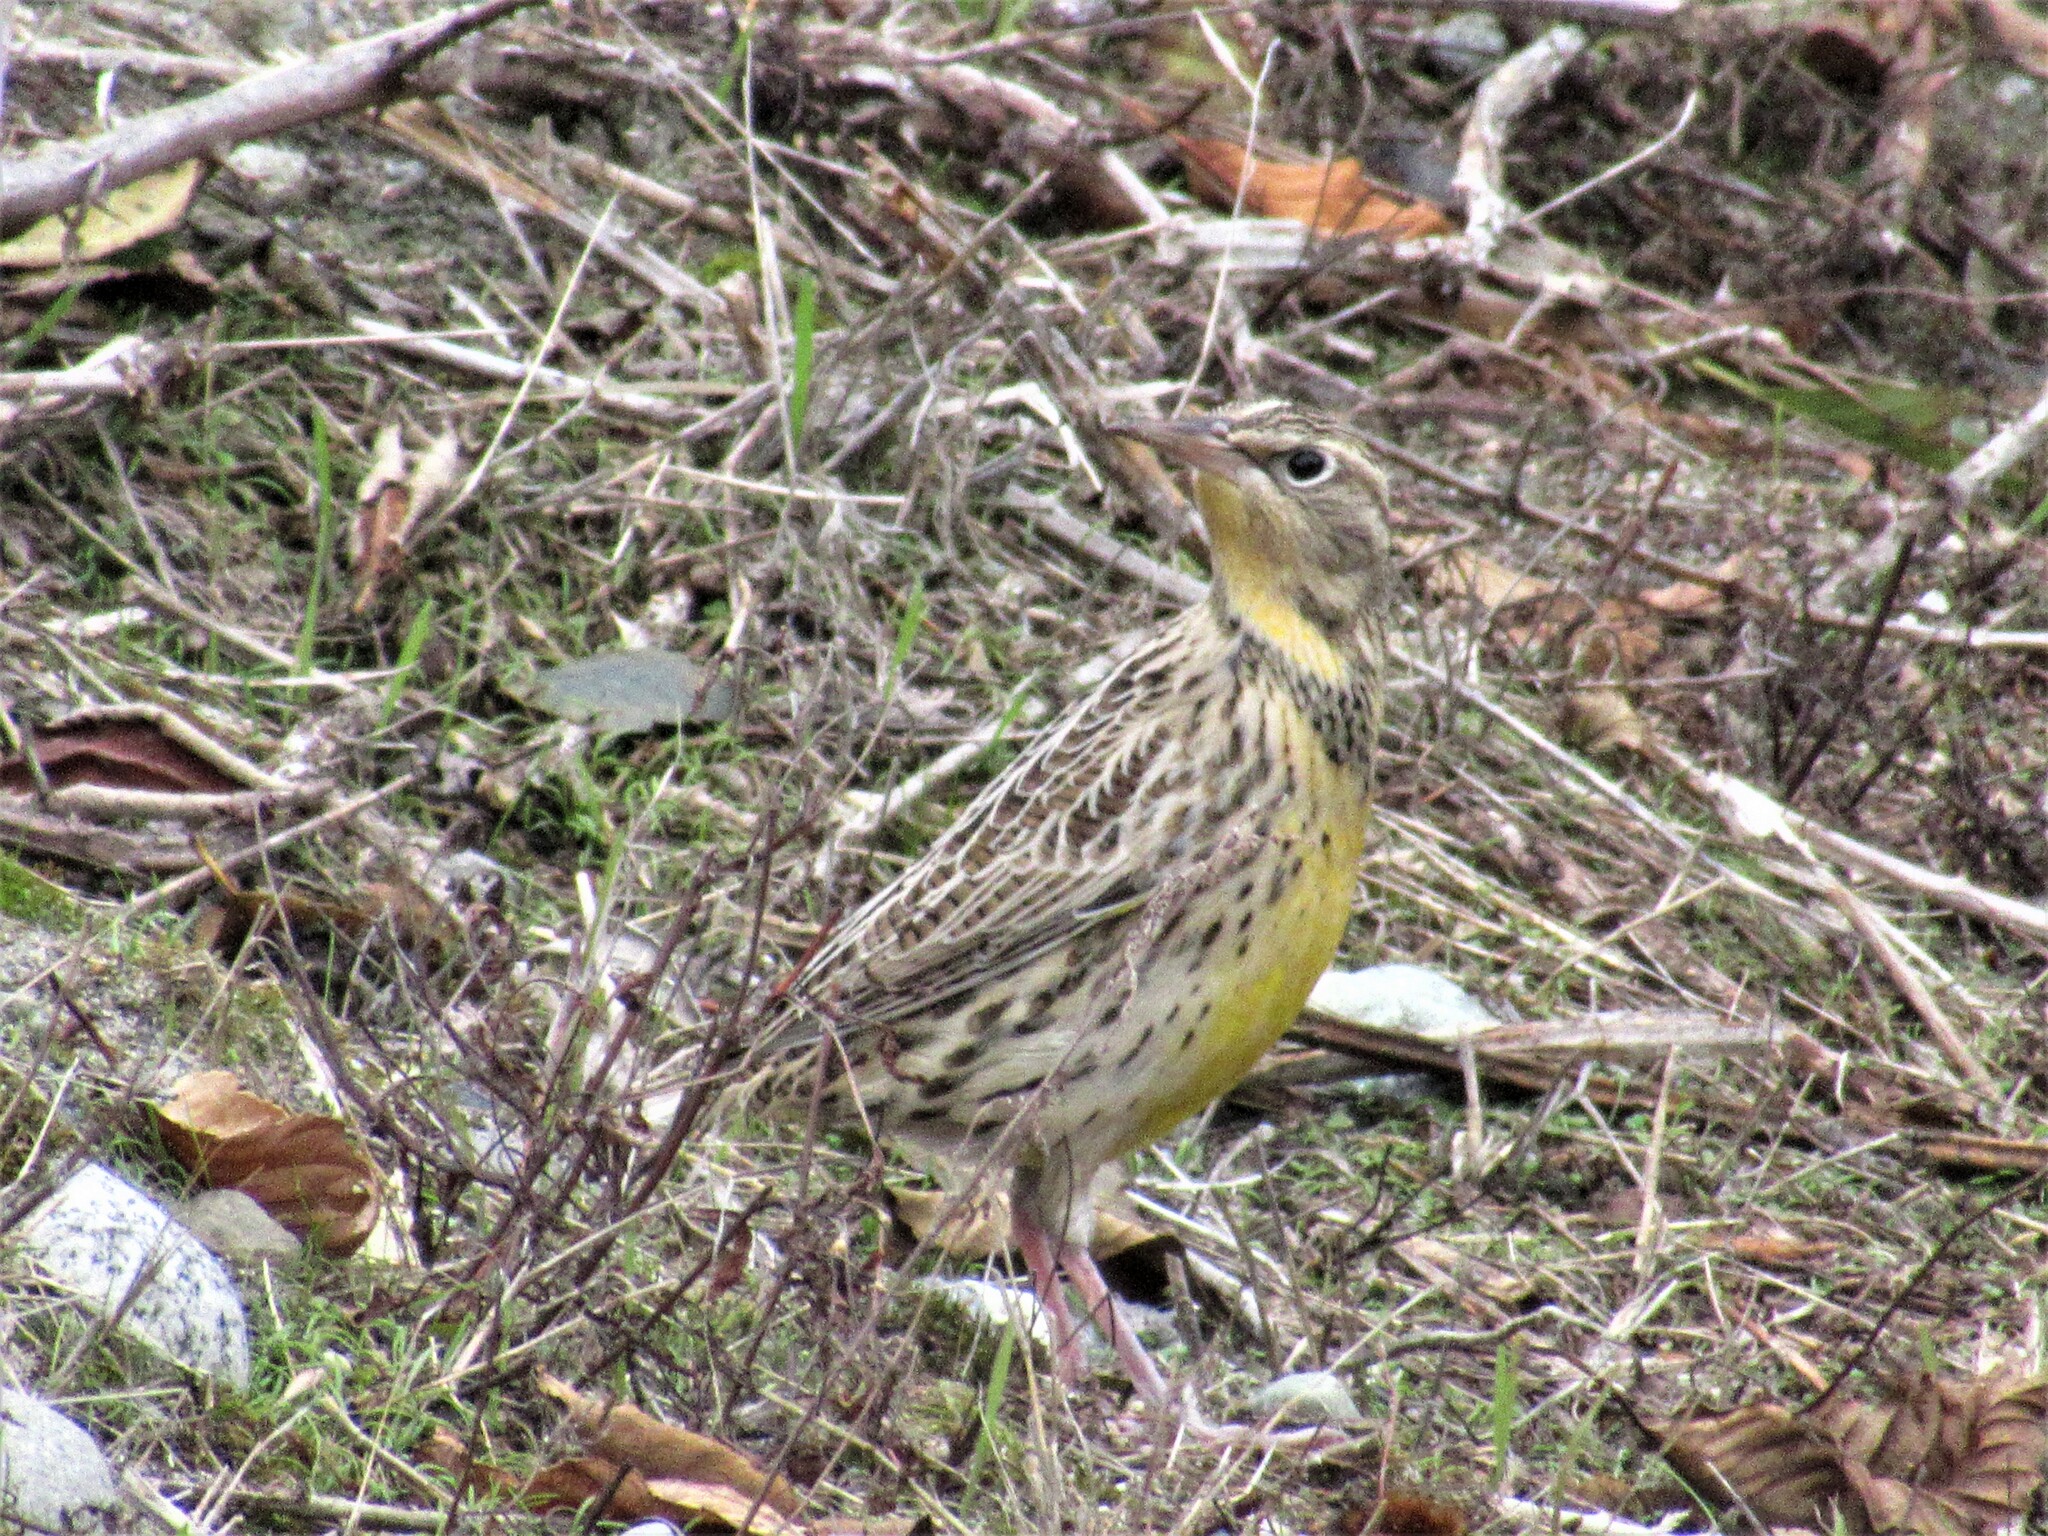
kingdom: Animalia
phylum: Chordata
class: Aves
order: Passeriformes
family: Icteridae
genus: Sturnella
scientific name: Sturnella neglecta
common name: Western meadowlark
